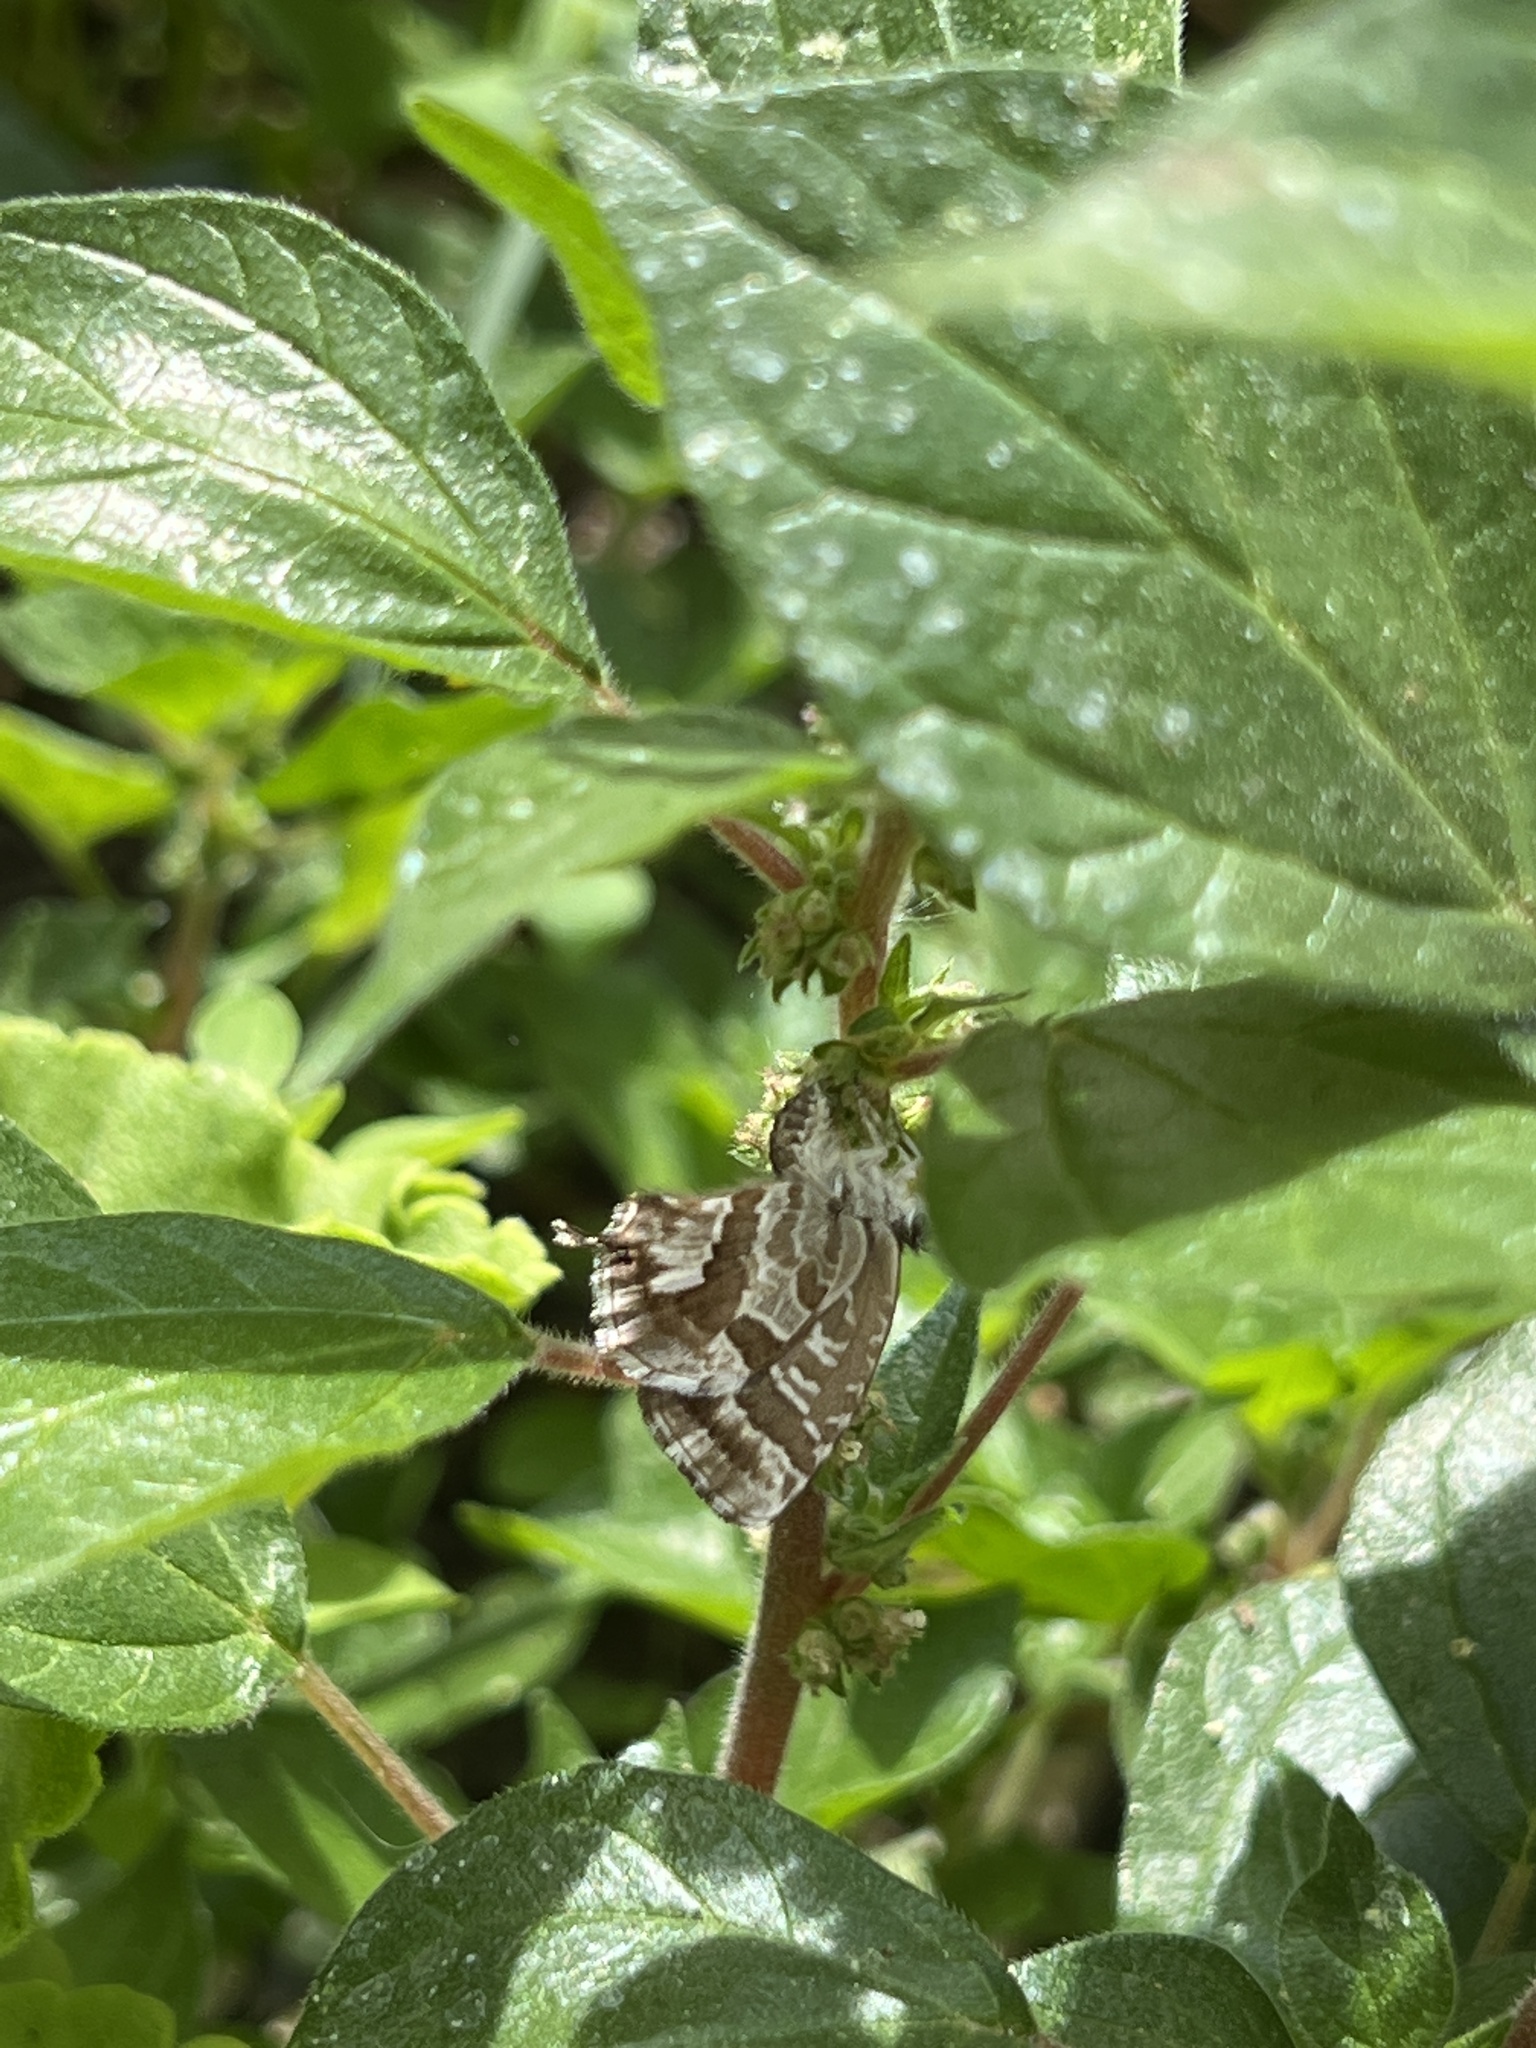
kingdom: Animalia
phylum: Arthropoda
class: Insecta
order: Lepidoptera
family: Lycaenidae
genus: Cacyreus
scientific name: Cacyreus marshalli
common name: Geranium bronze
